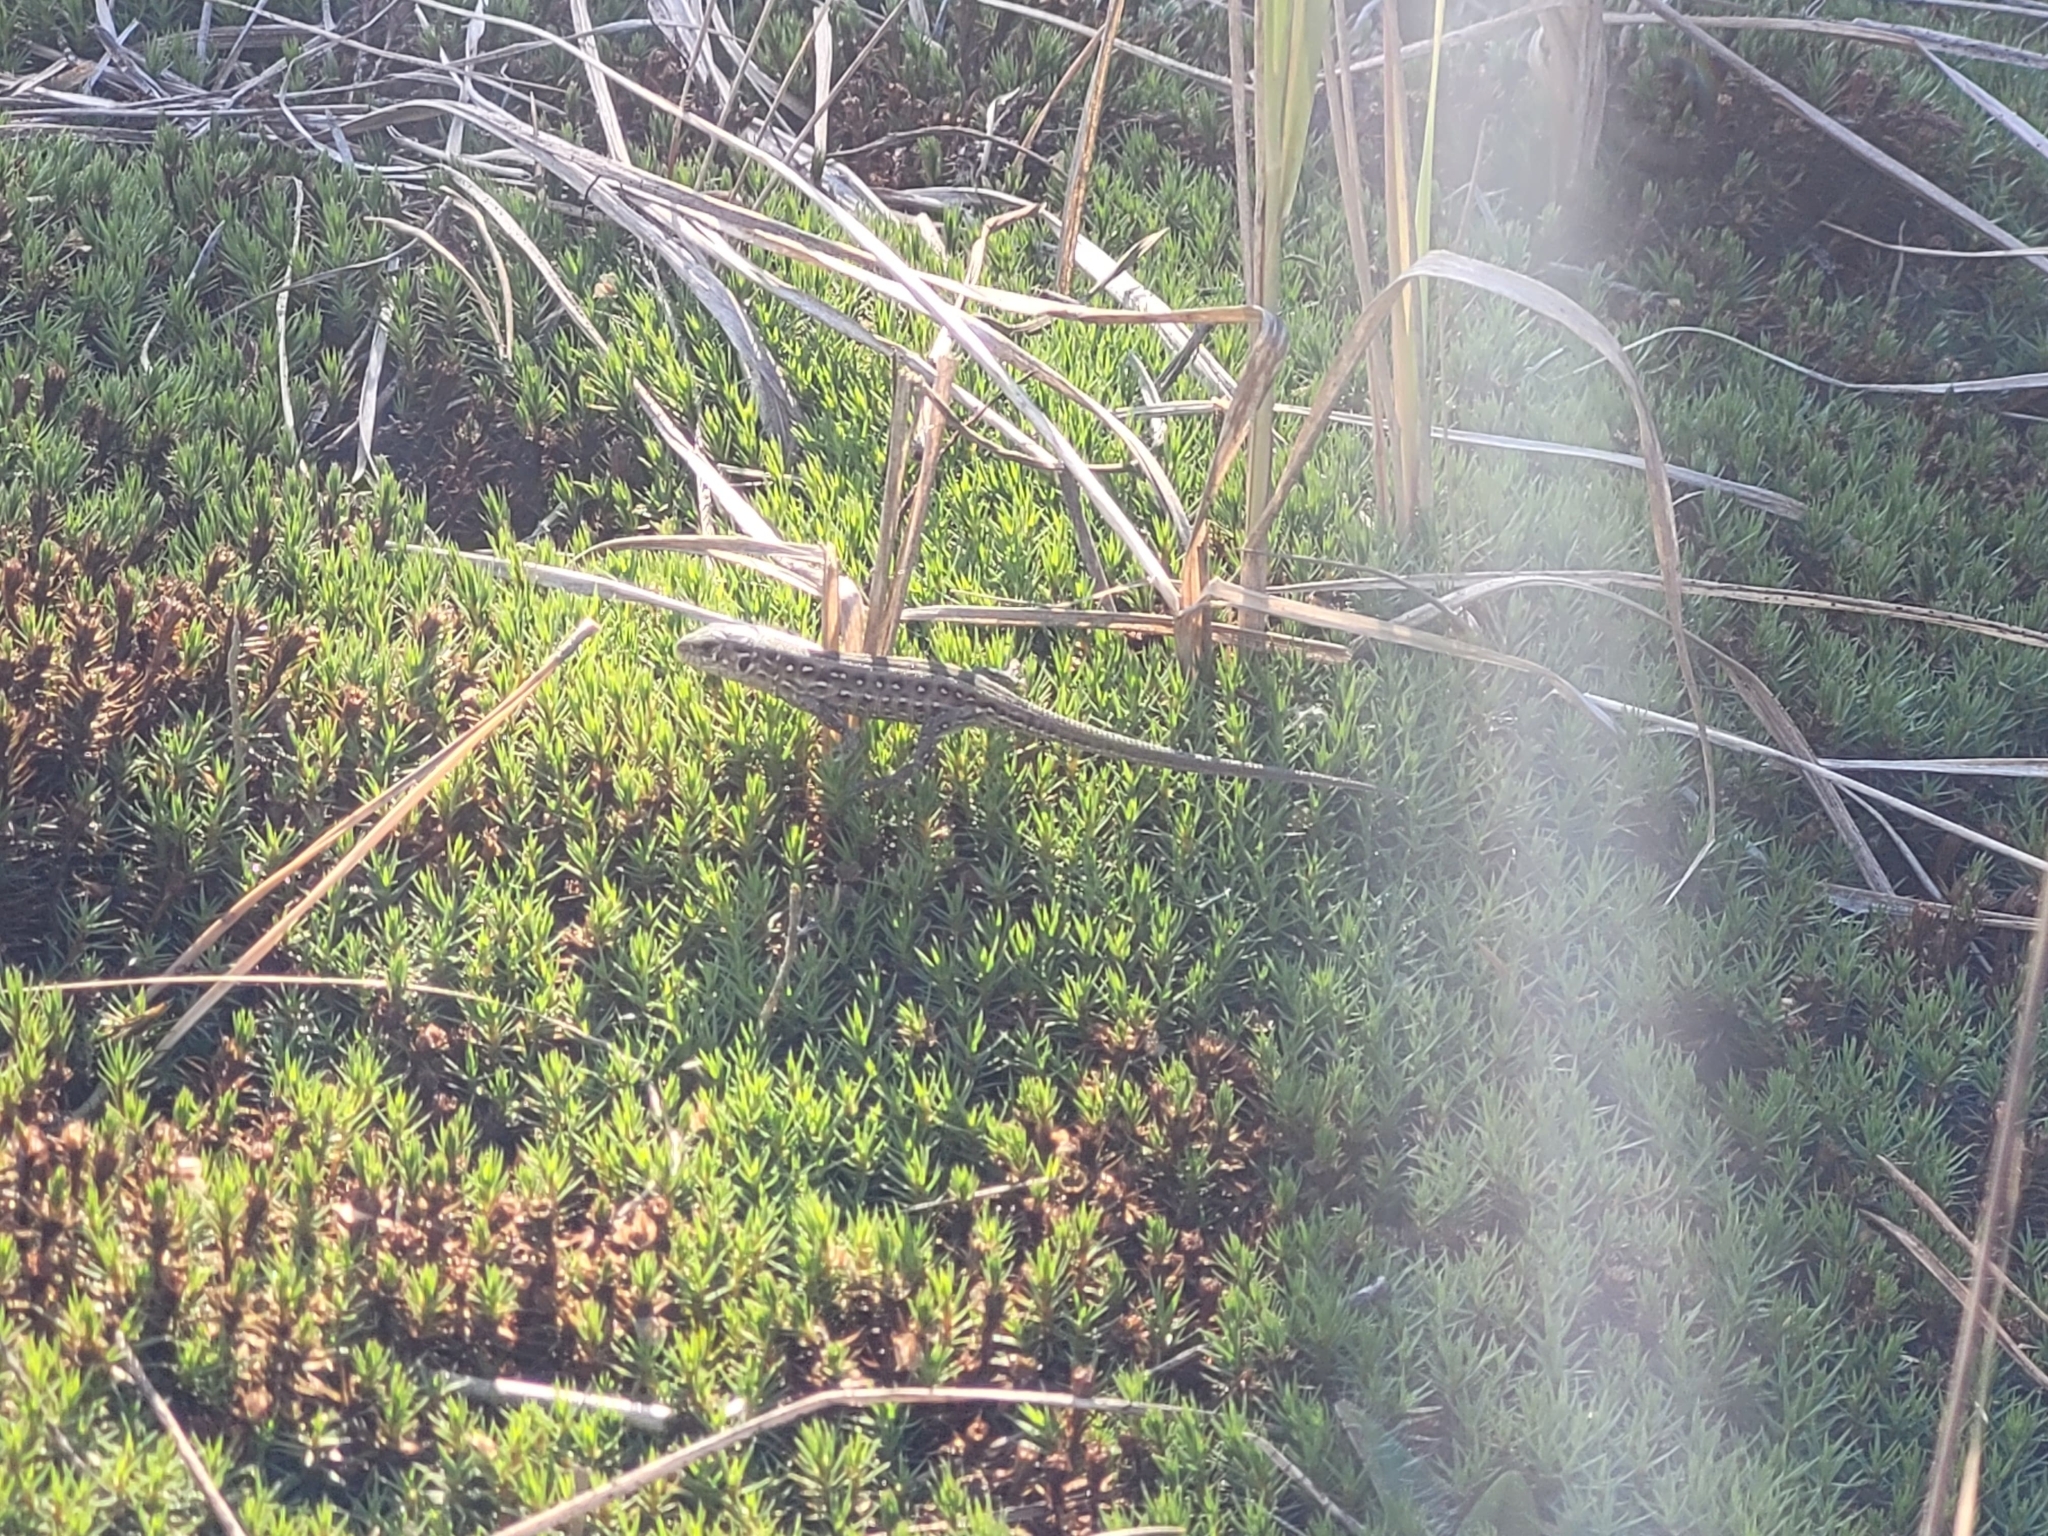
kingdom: Animalia
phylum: Chordata
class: Squamata
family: Lacertidae
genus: Lacerta
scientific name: Lacerta agilis
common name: Sand lizard
